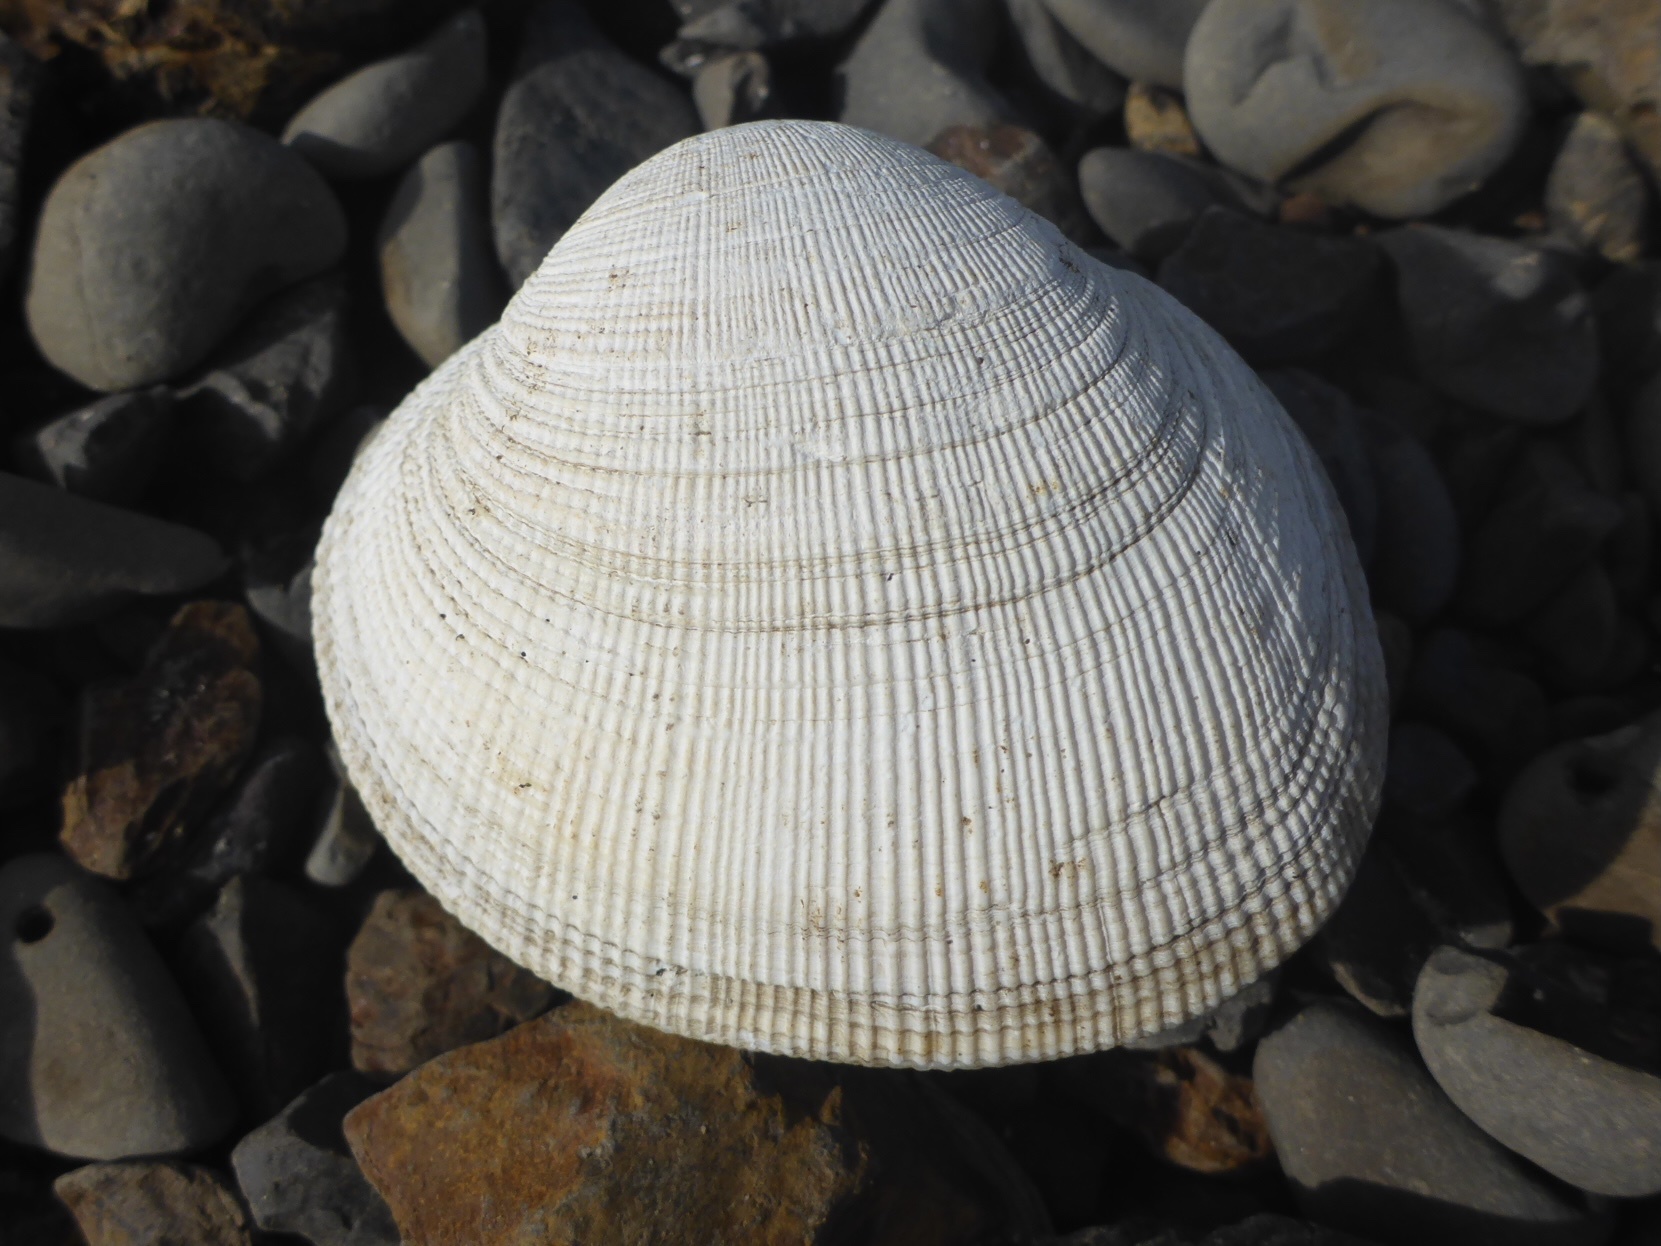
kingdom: Animalia
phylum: Mollusca
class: Bivalvia
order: Venerida
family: Veneridae
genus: Leukoma
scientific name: Leukoma staminea
